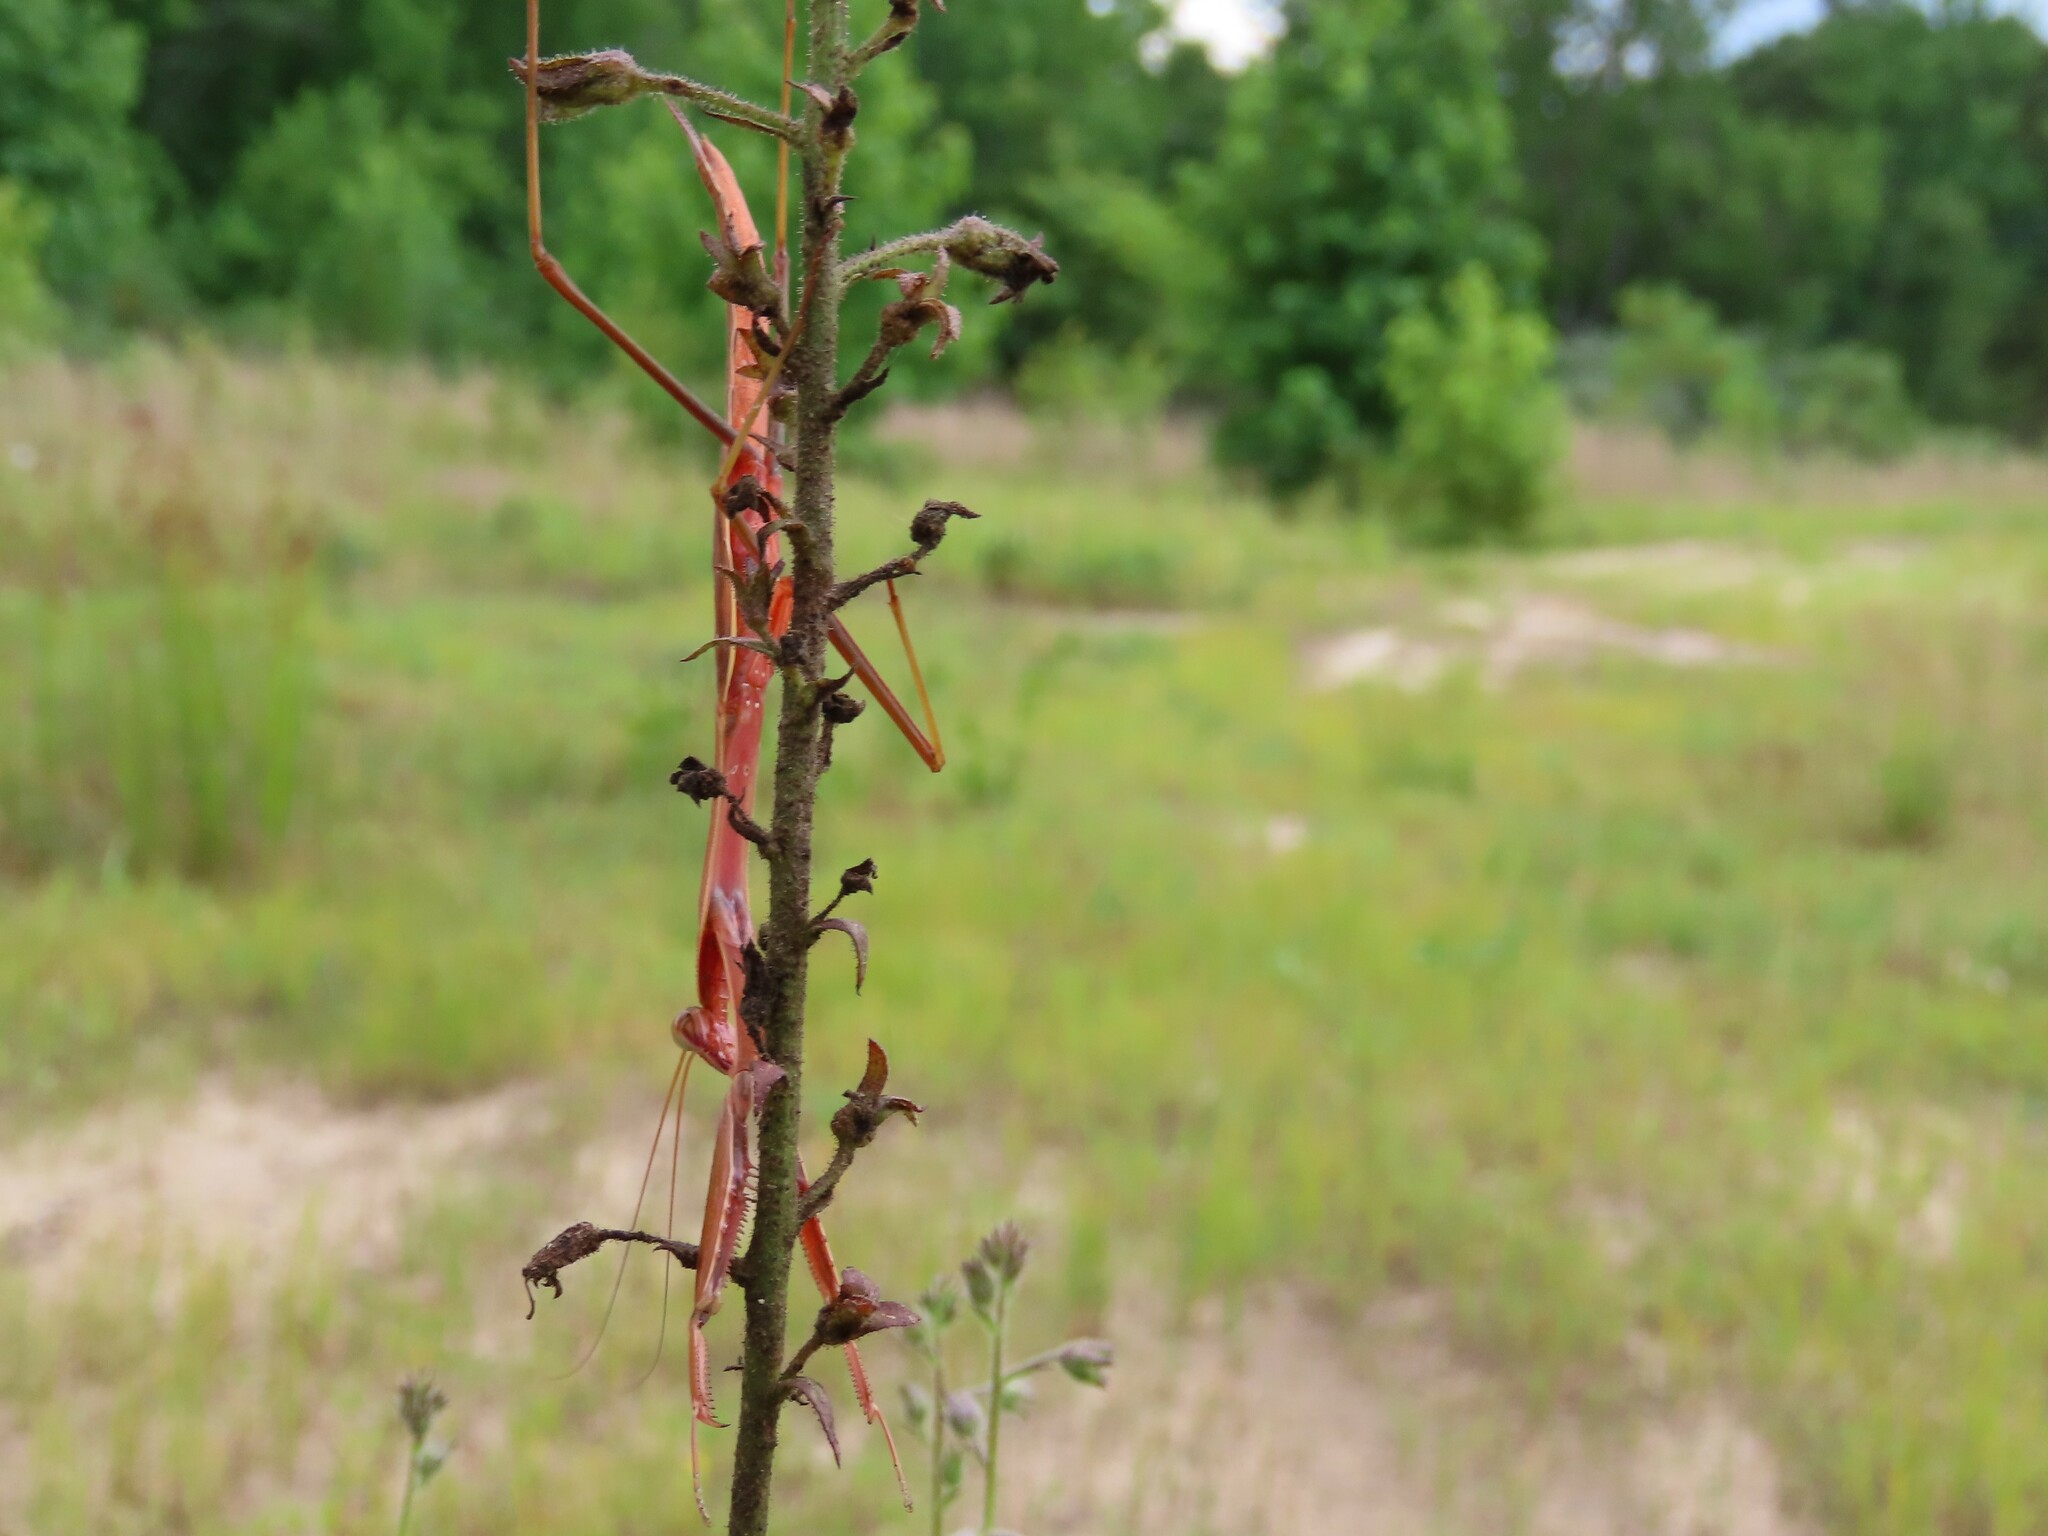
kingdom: Animalia
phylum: Arthropoda
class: Insecta
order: Mantodea
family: Mantidae
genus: Tenodera
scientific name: Tenodera sinensis
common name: Chinese mantis
